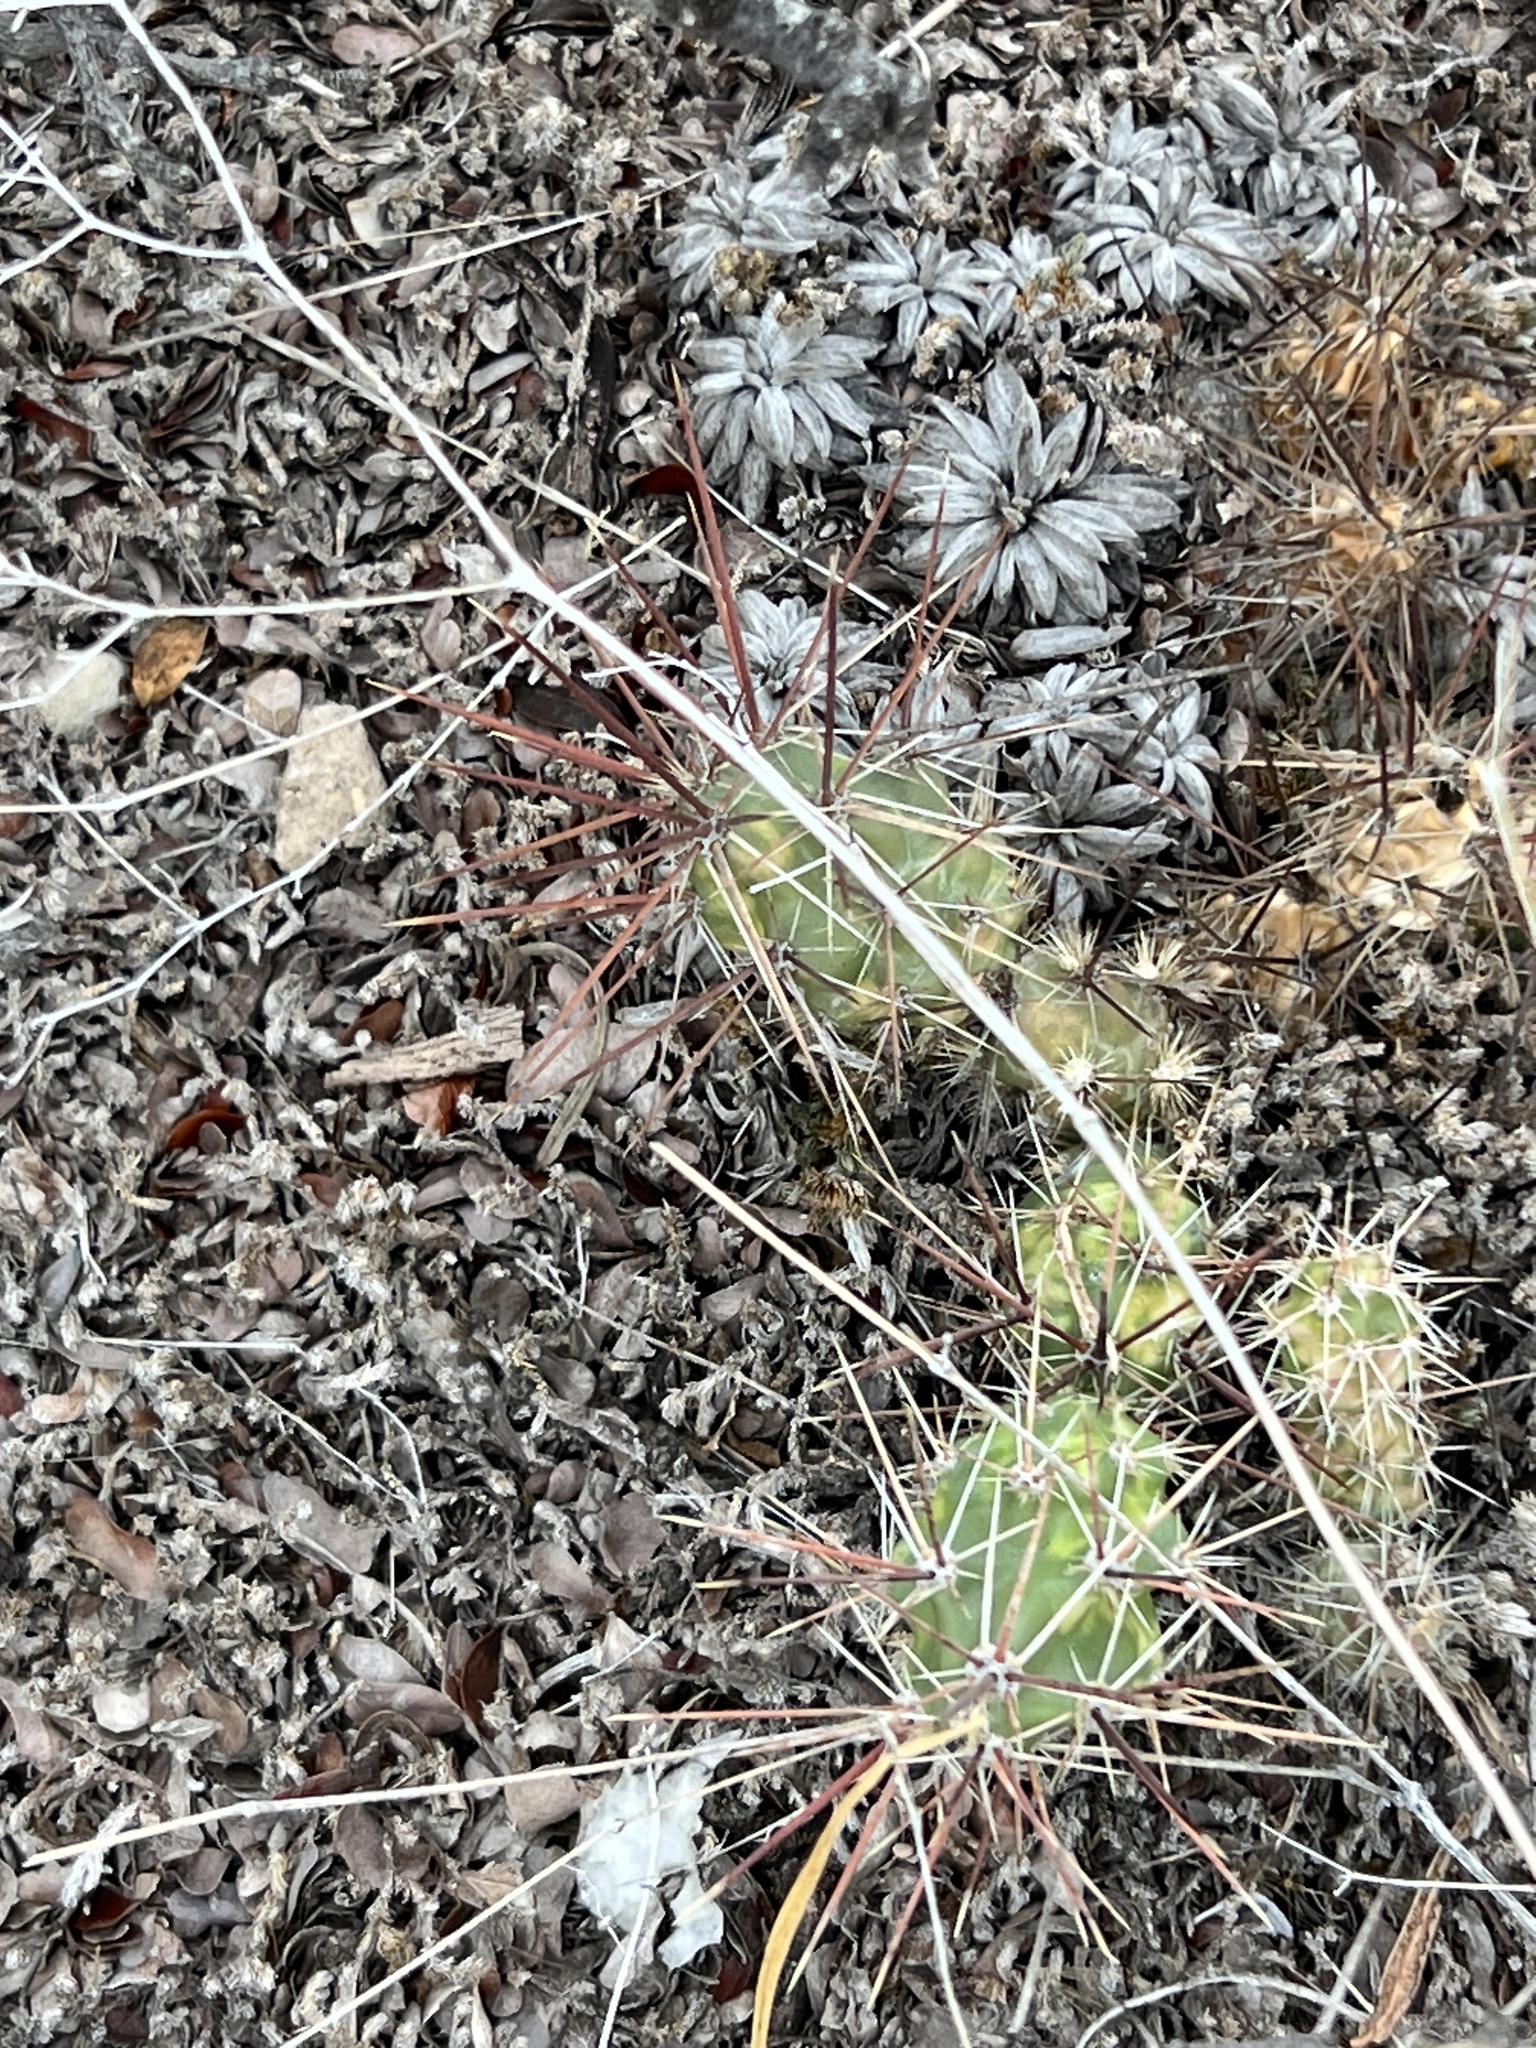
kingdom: Plantae
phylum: Tracheophyta
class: Magnoliopsida
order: Caryophyllales
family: Cactaceae
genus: Grusonia
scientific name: Grusonia schottii
